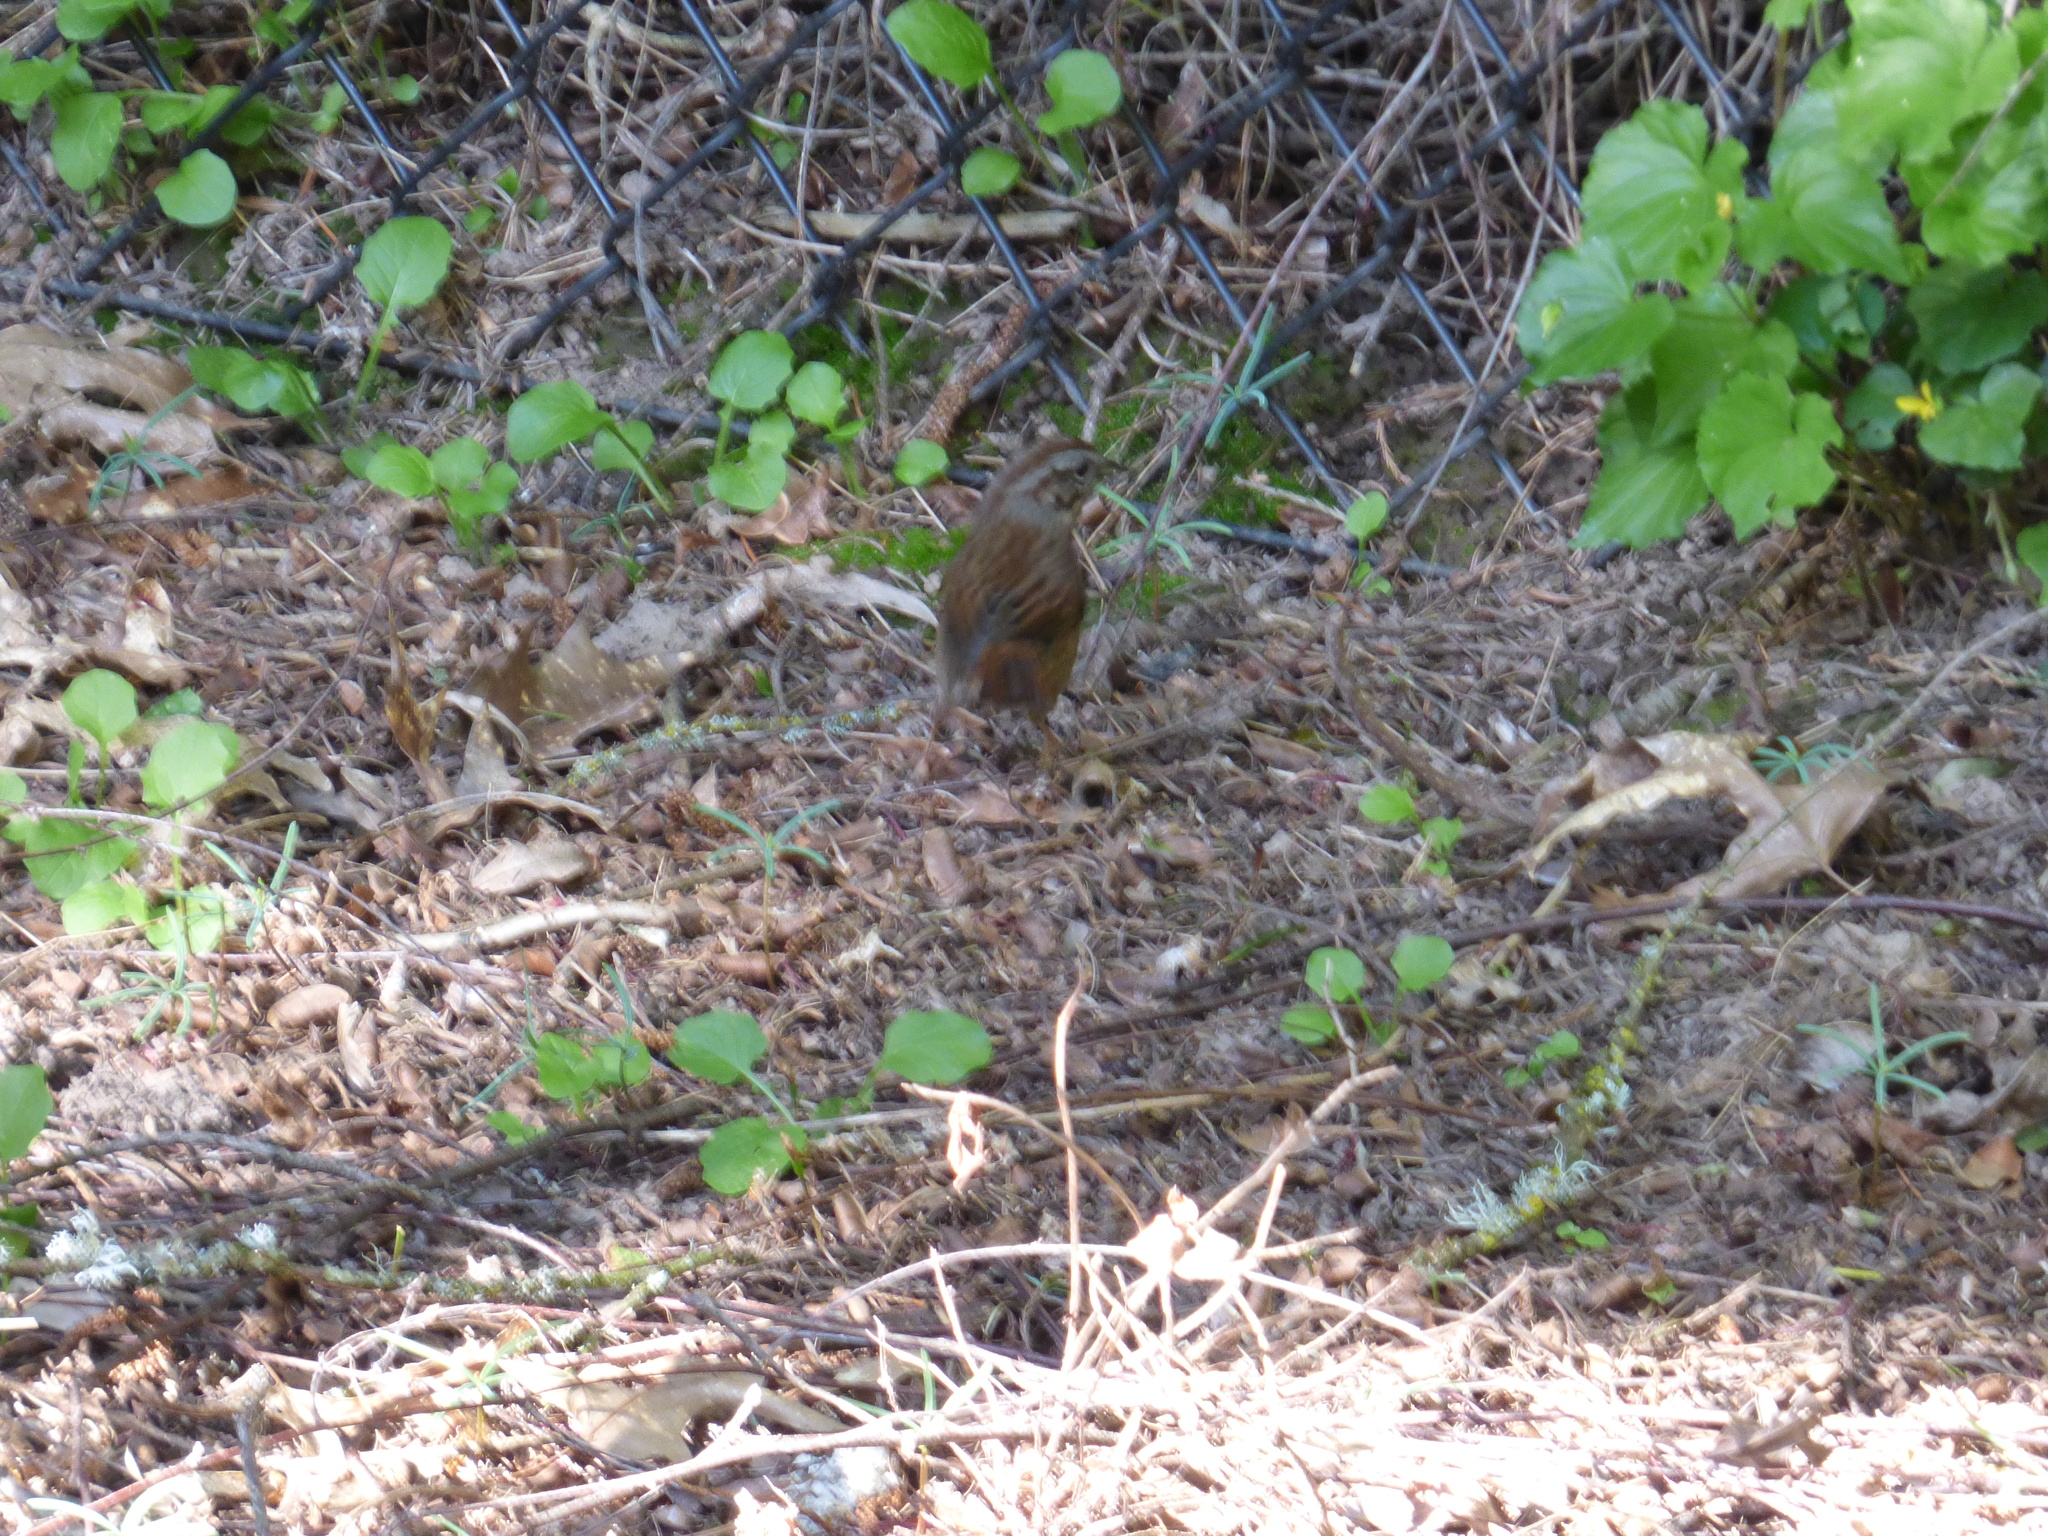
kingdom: Animalia
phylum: Chordata
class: Aves
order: Passeriformes
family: Passerellidae
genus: Melospiza
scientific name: Melospiza melodia
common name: Song sparrow
